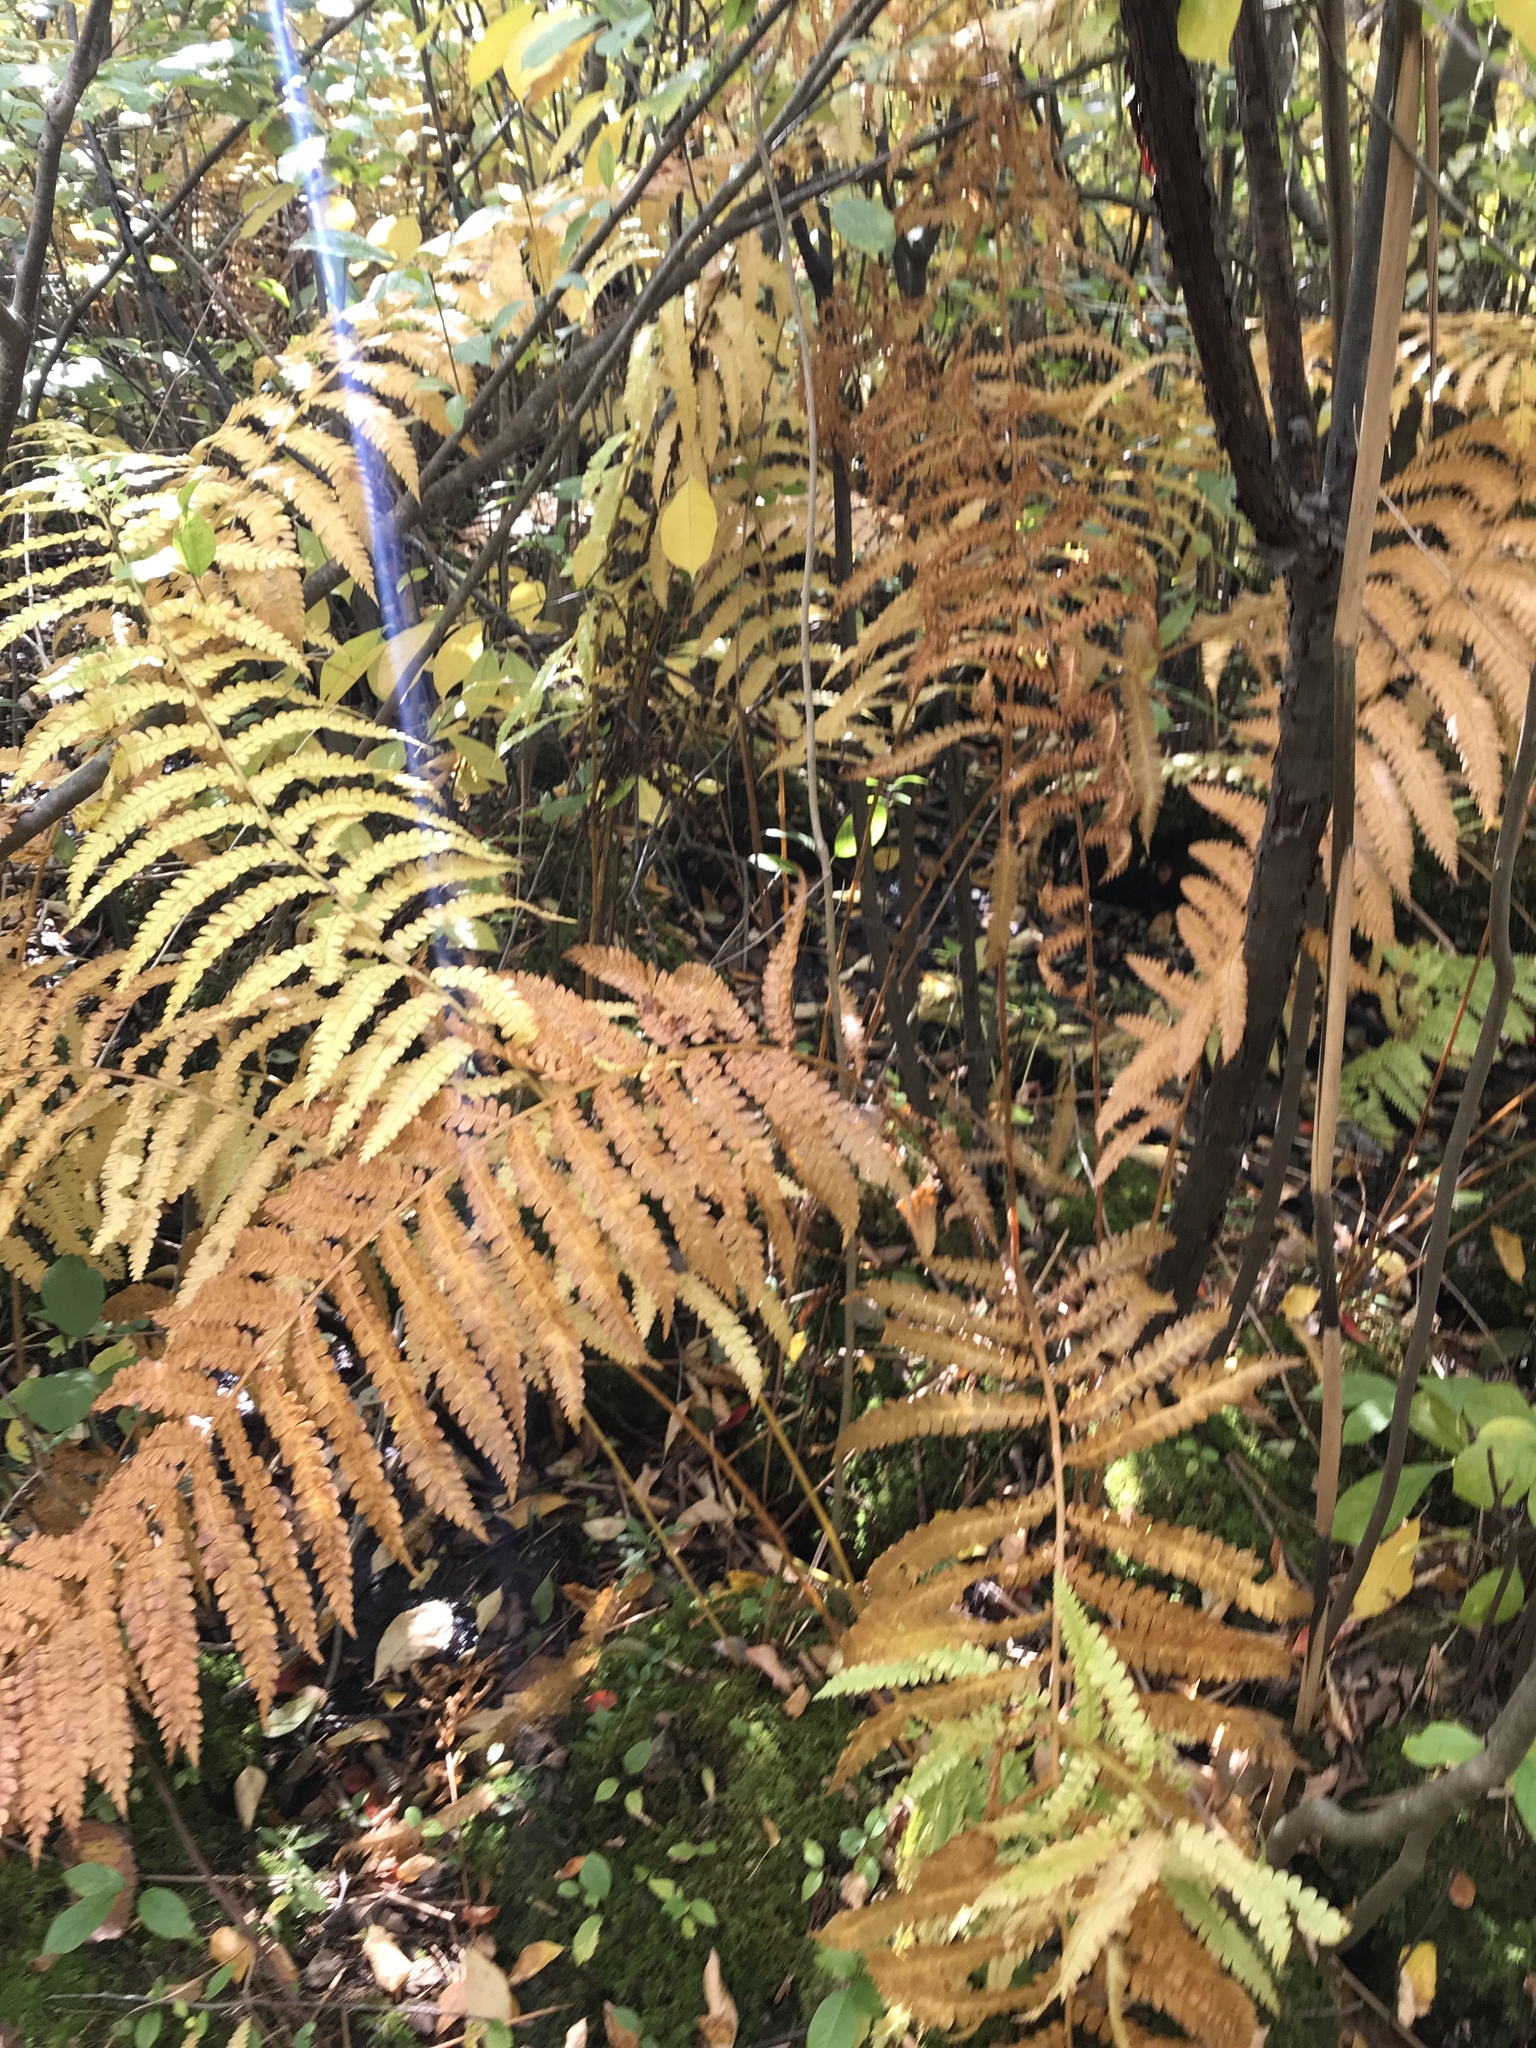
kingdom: Plantae
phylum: Tracheophyta
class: Polypodiopsida
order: Osmundales
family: Osmundaceae
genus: Osmundastrum
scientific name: Osmundastrum cinnamomeum
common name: Cinnamon fern
